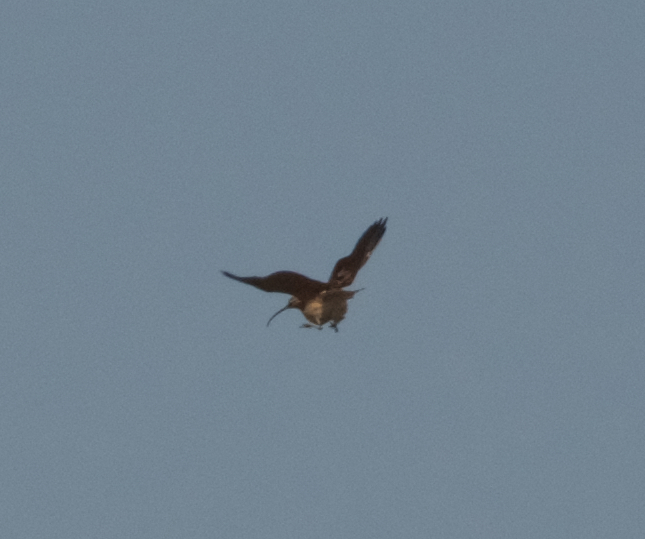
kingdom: Animalia
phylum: Chordata
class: Aves
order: Charadriiformes
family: Scolopacidae
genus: Numenius
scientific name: Numenius americanus
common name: Long-billed curlew
